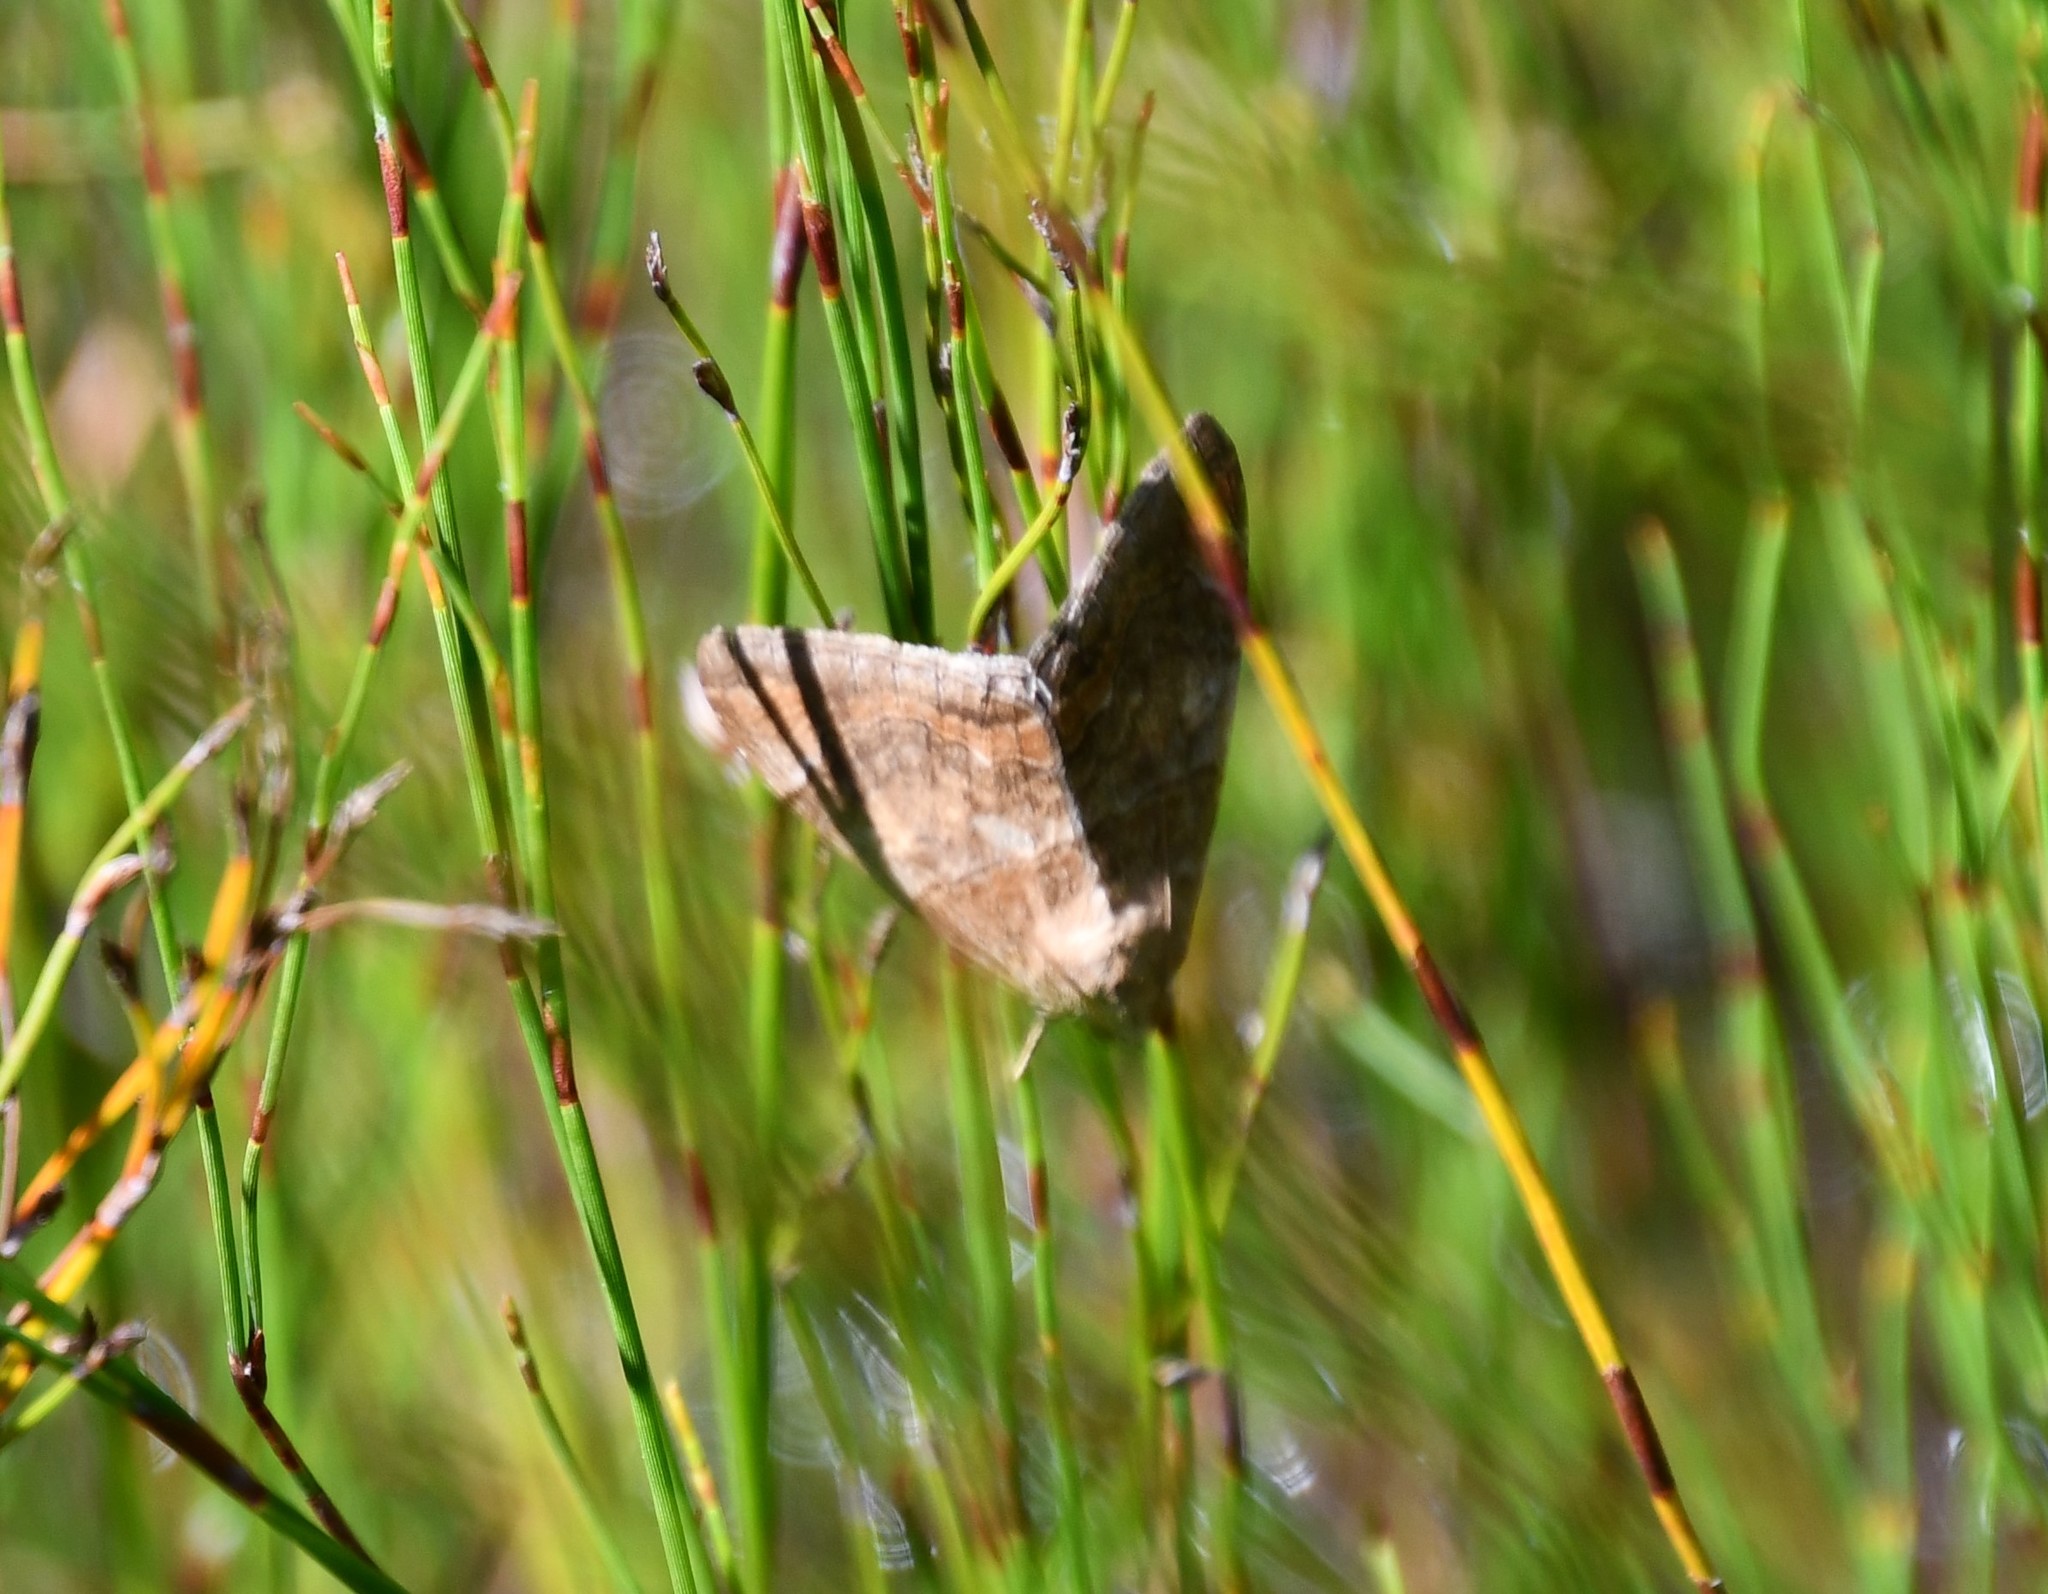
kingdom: Animalia
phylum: Arthropoda
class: Insecta
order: Lepidoptera
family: Erebidae
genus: Achaea
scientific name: Achaea janata
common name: Croton caterpillar
